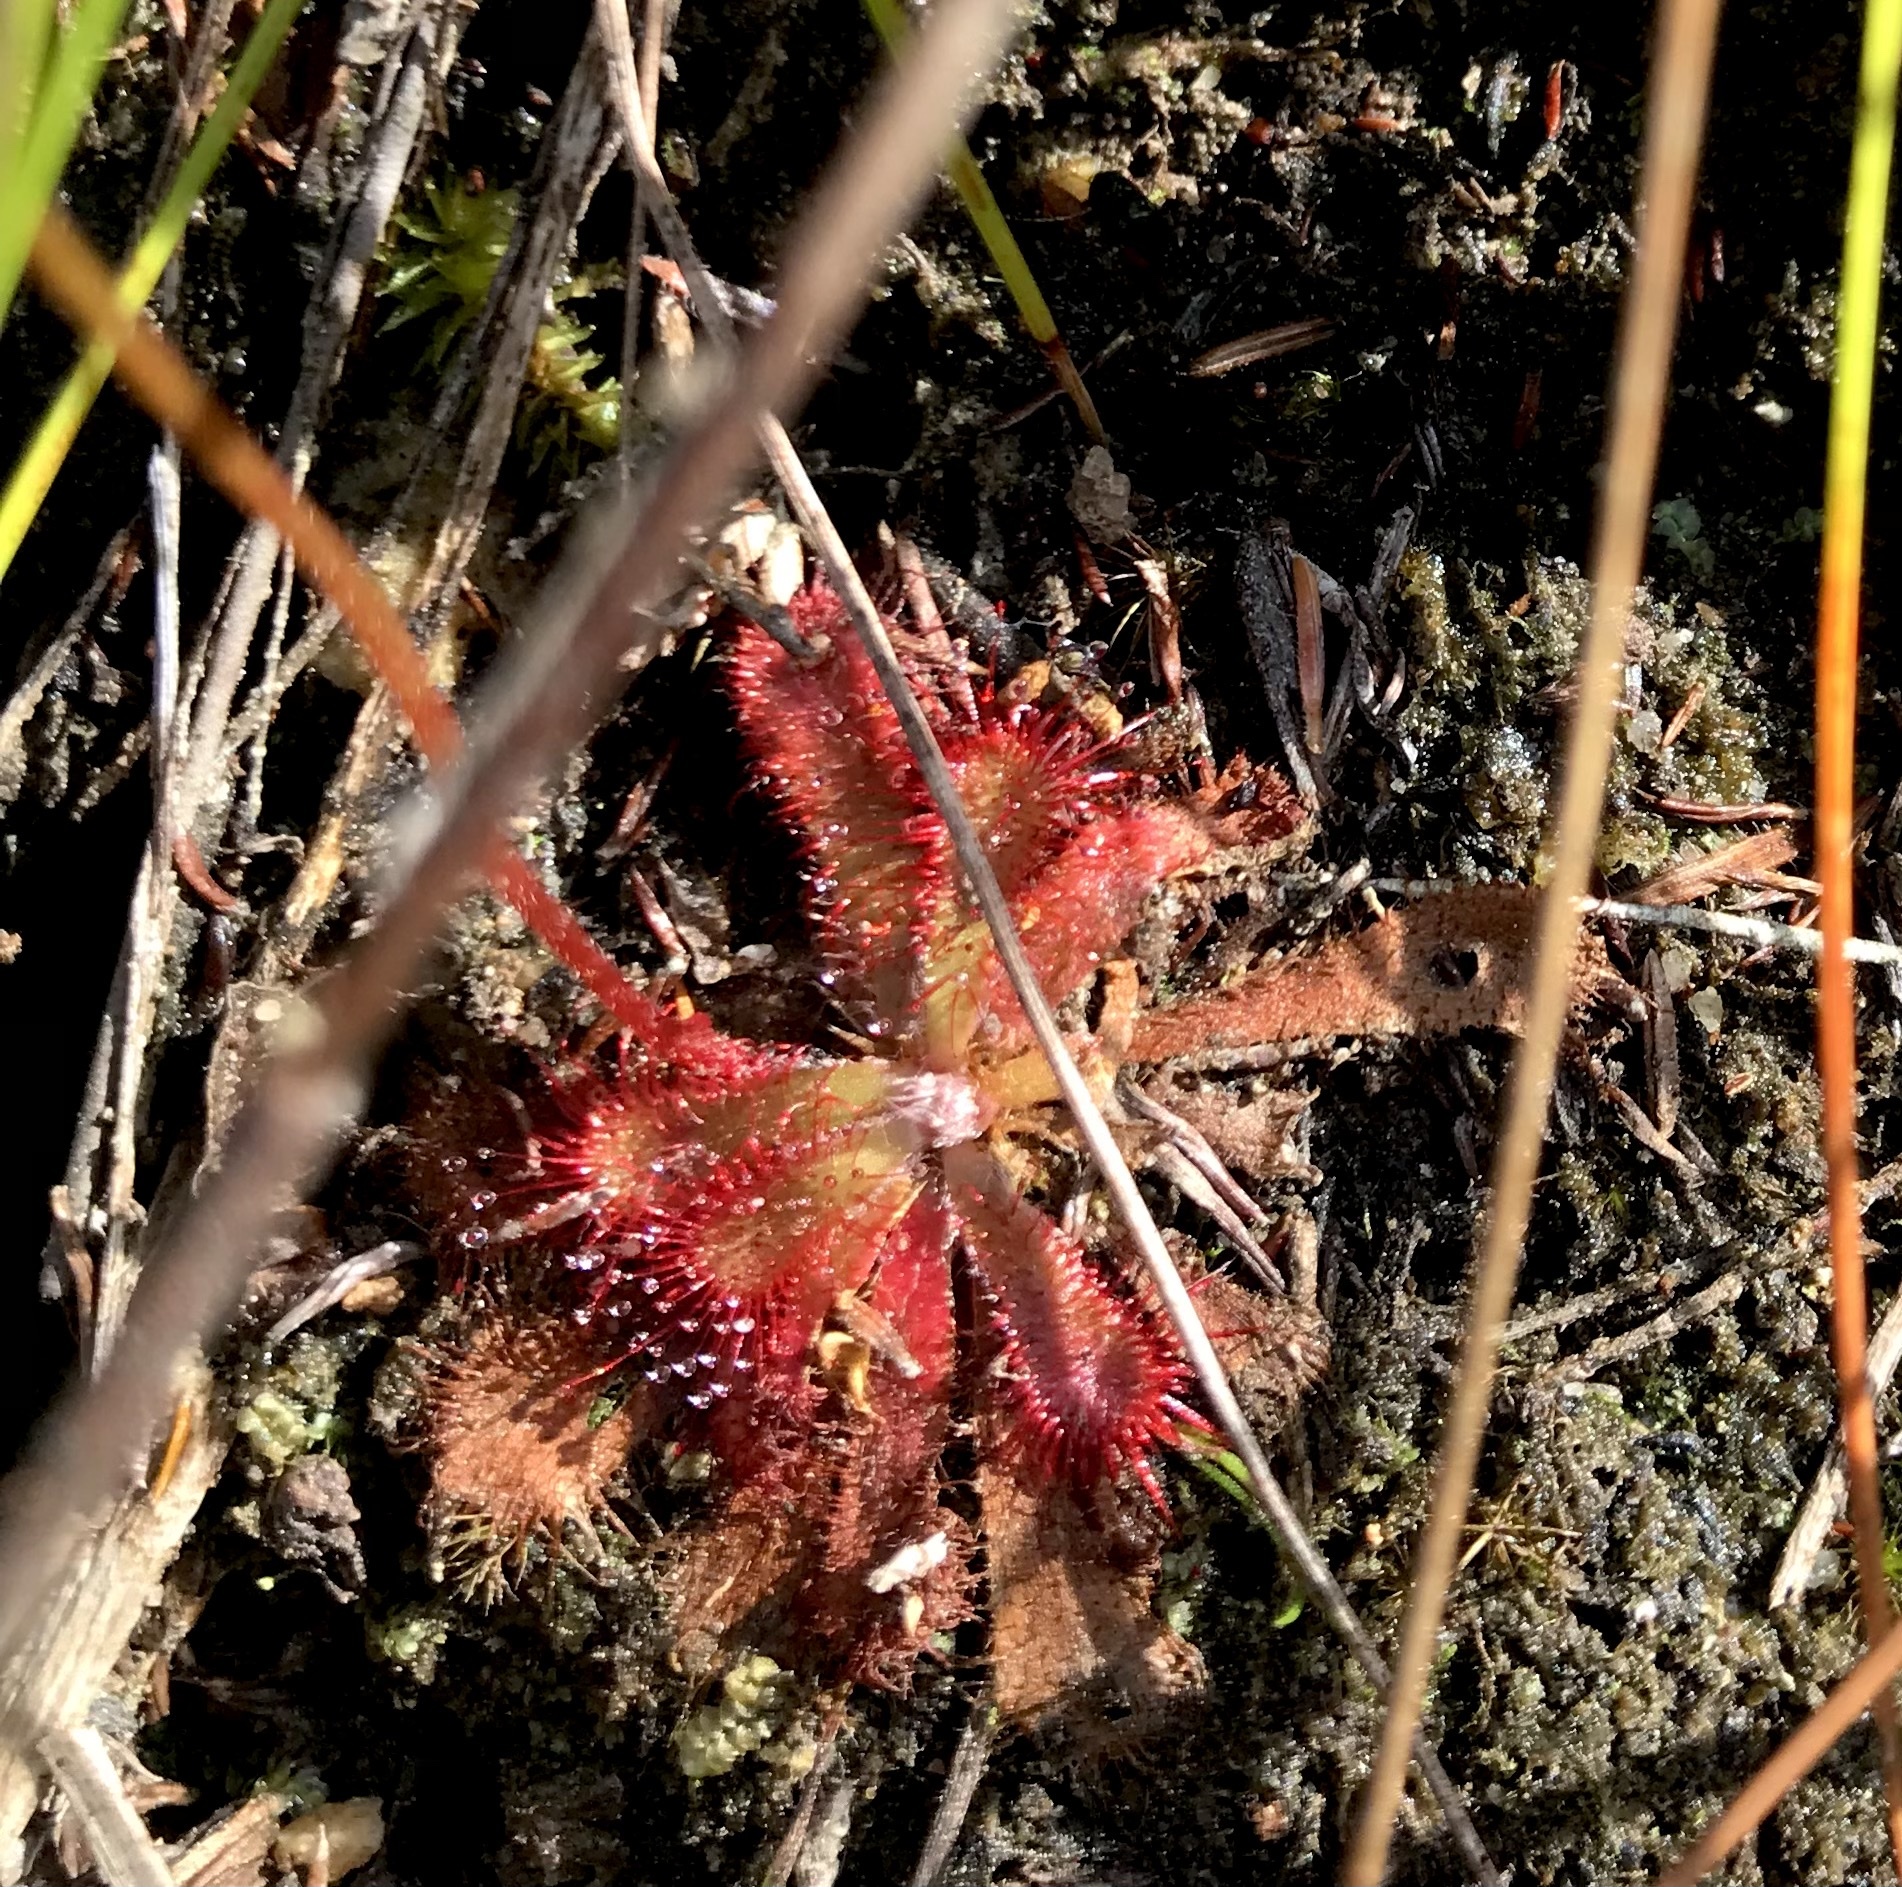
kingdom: Plantae
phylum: Tracheophyta
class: Magnoliopsida
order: Caryophyllales
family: Droseraceae
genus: Drosera
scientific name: Drosera aliciae
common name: Alice sundew
